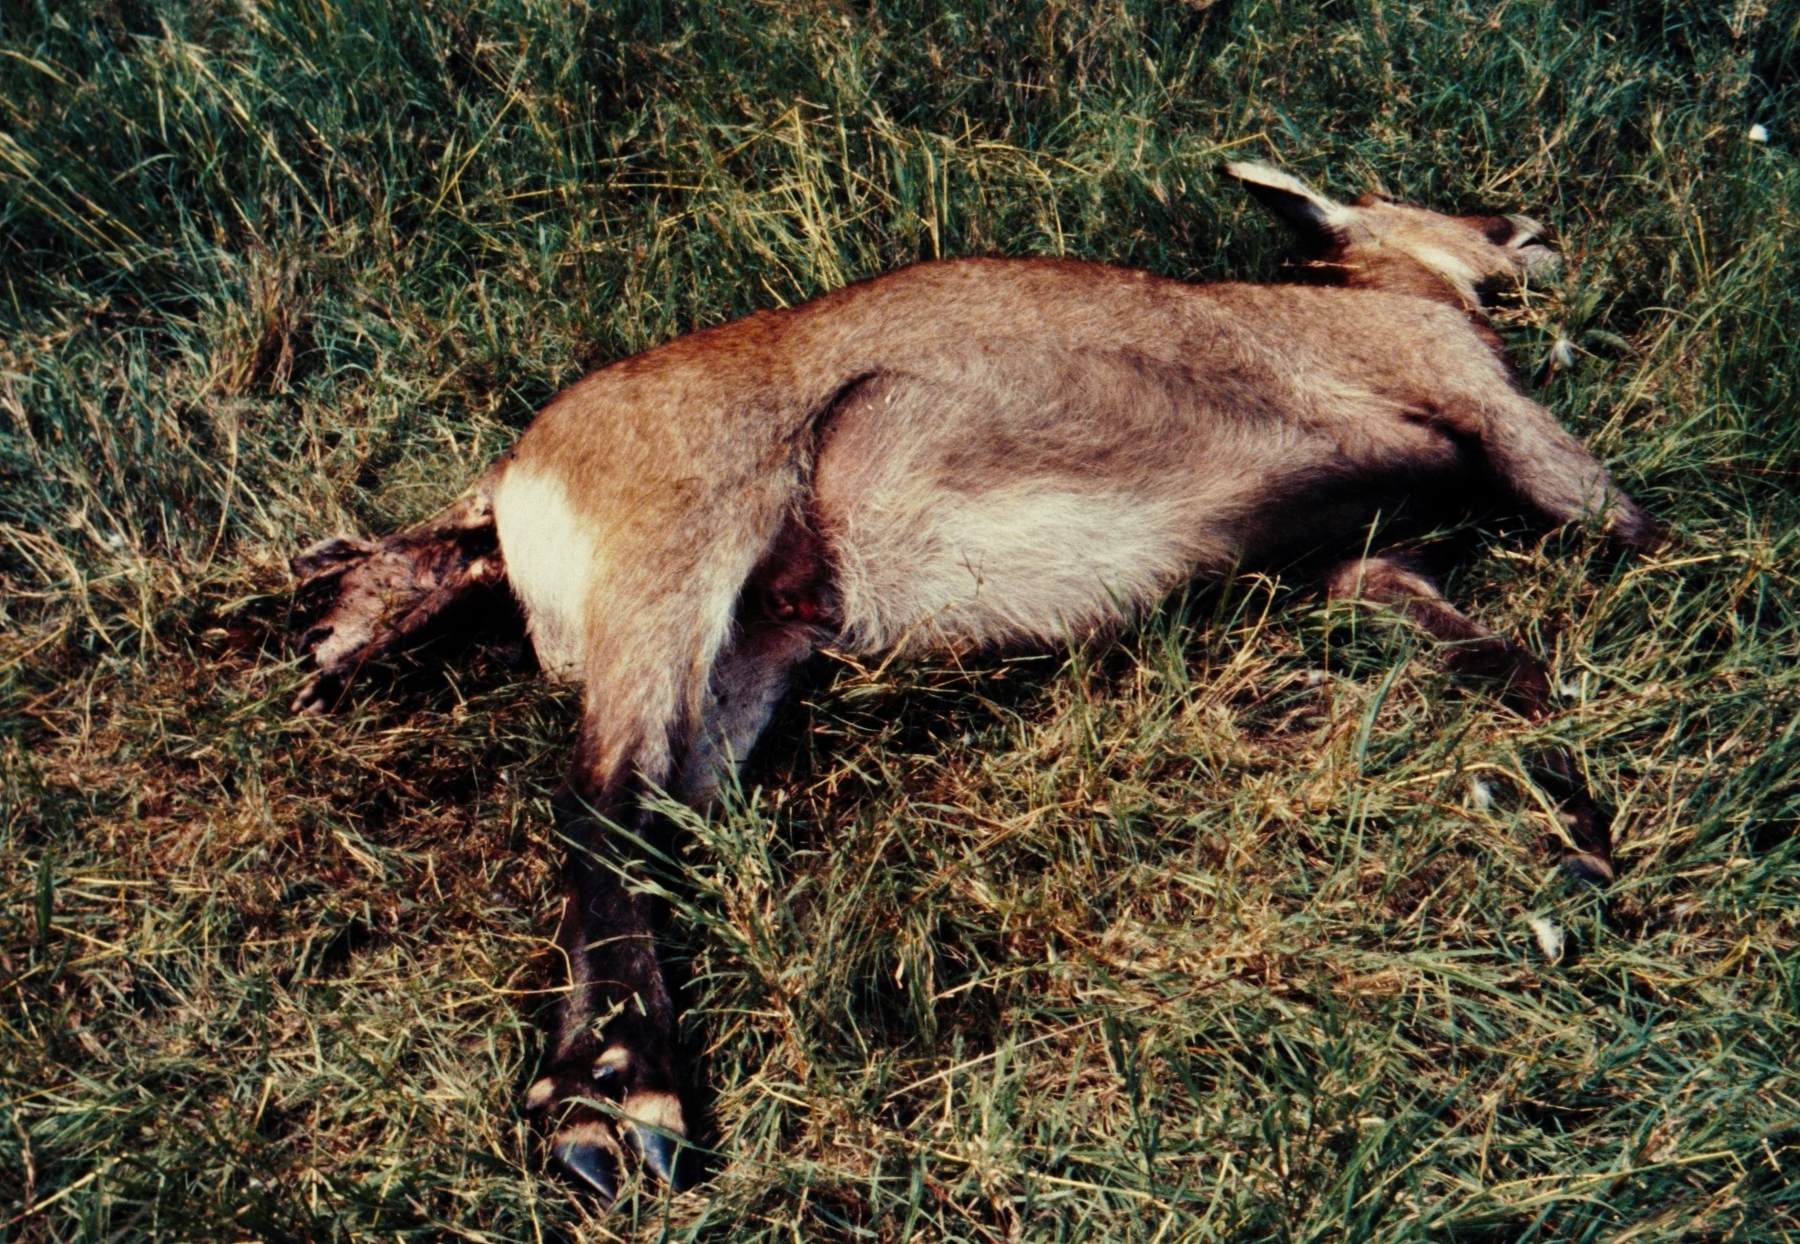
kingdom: Animalia
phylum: Chordata
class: Mammalia
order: Artiodactyla
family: Bovidae
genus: Kobus
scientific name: Kobus ellipsiprymnus
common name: Waterbuck
